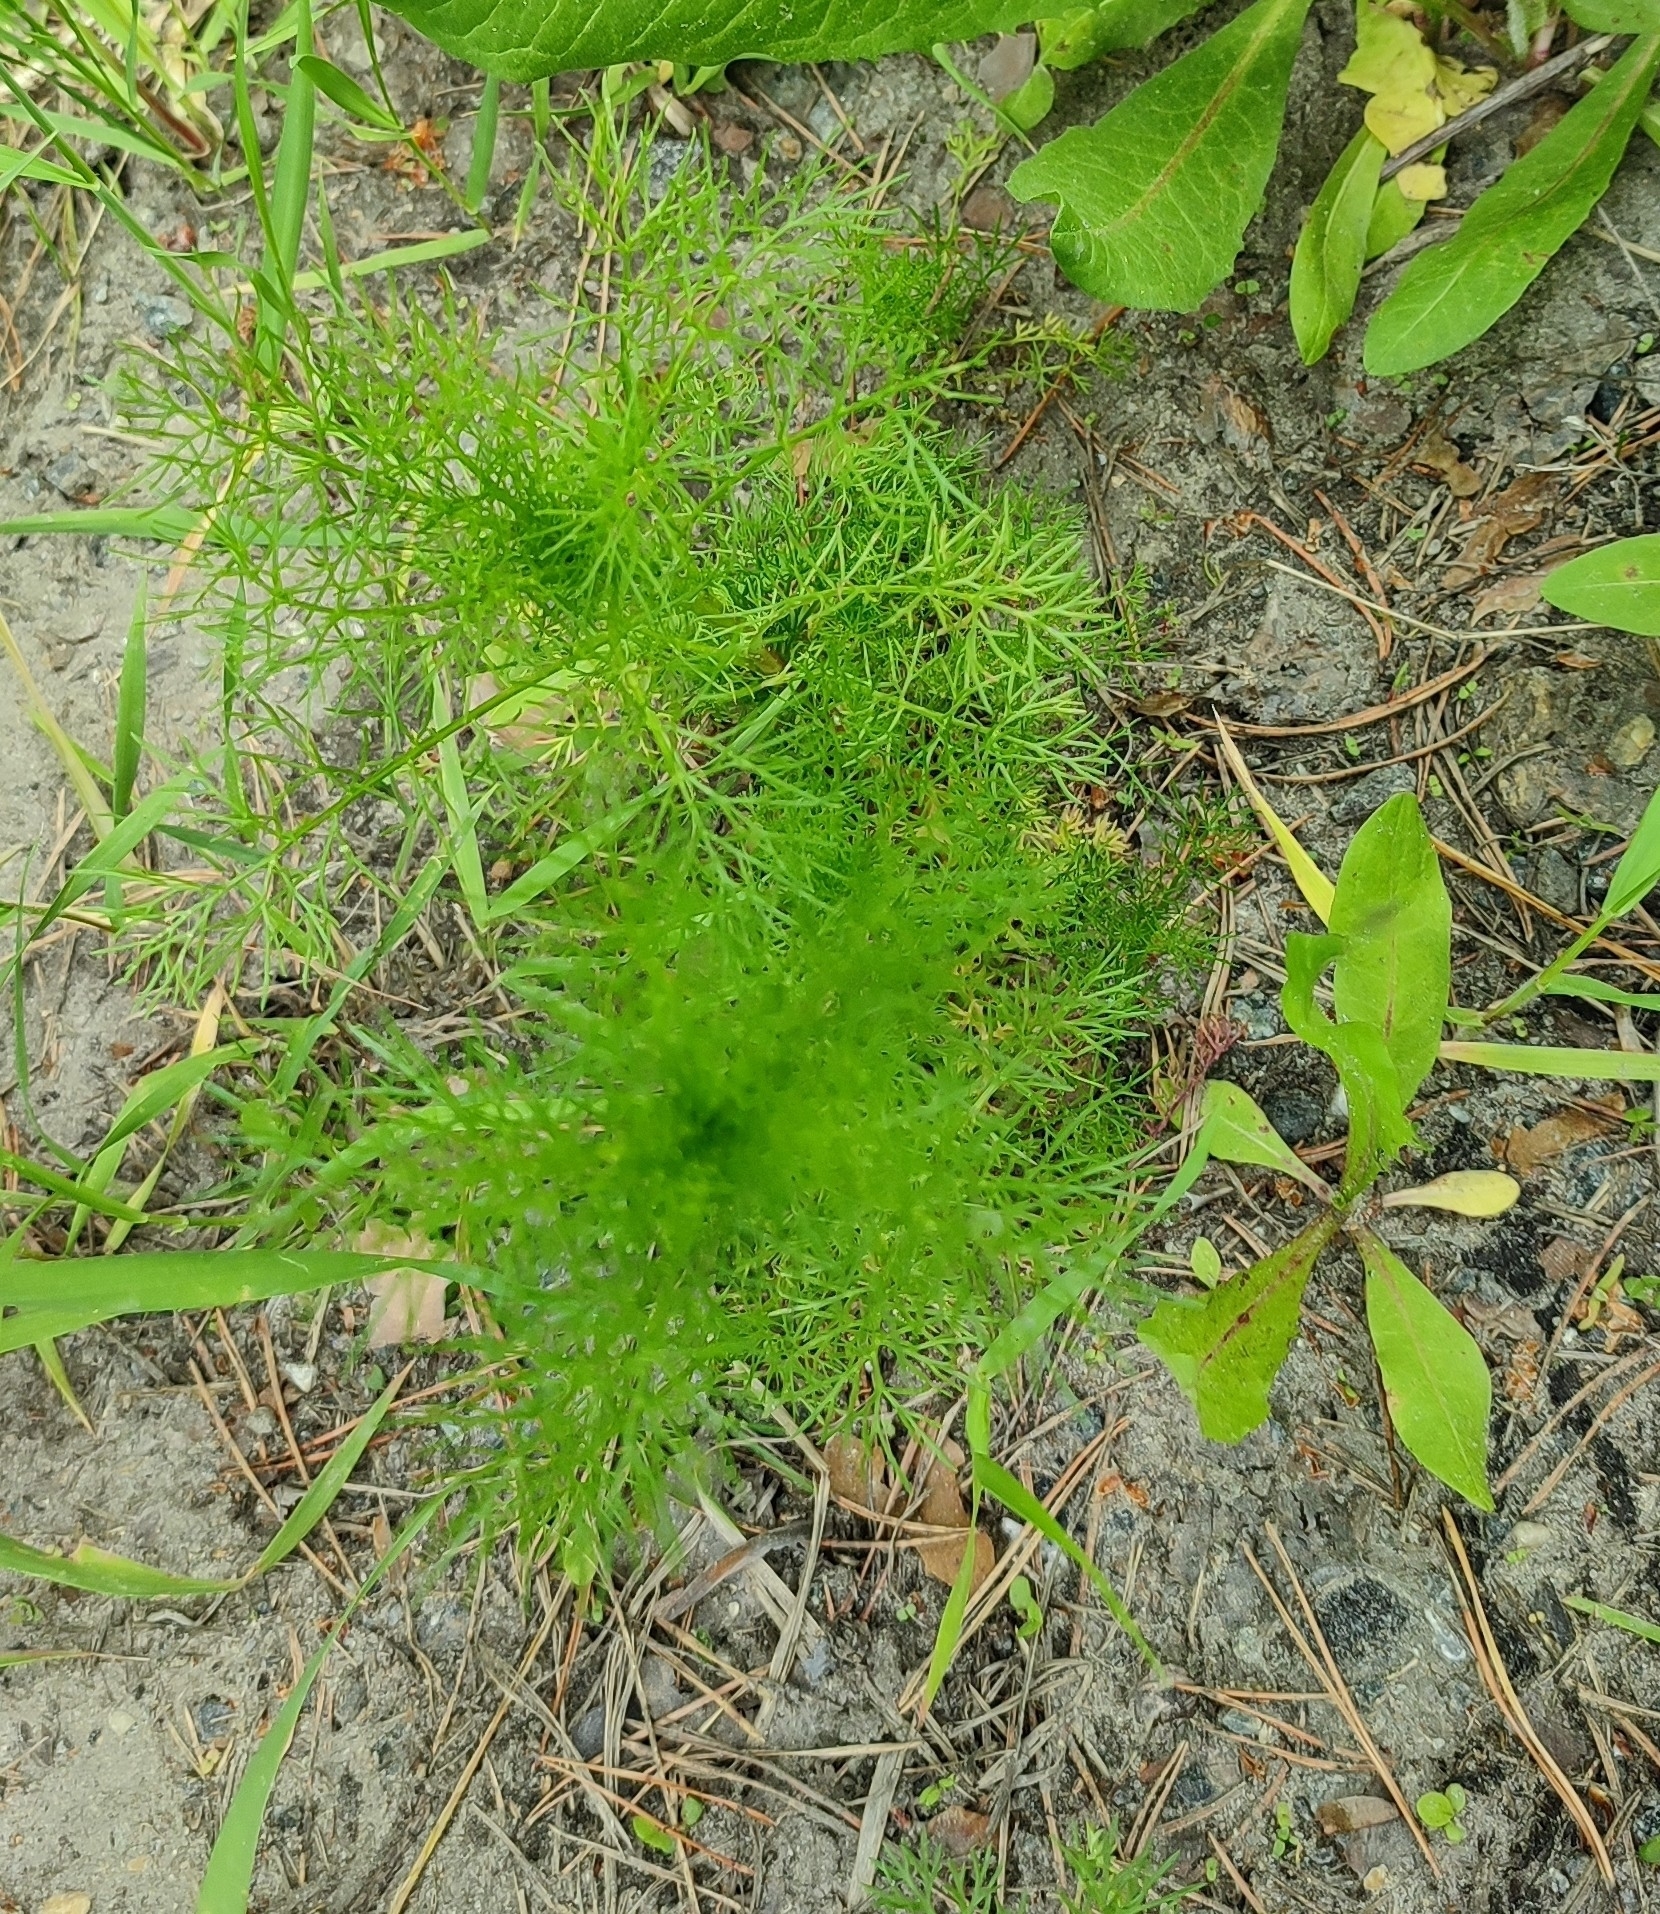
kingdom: Plantae
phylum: Tracheophyta
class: Magnoliopsida
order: Asterales
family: Asteraceae
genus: Tripleurospermum
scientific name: Tripleurospermum inodorum
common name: Scentless mayweed
